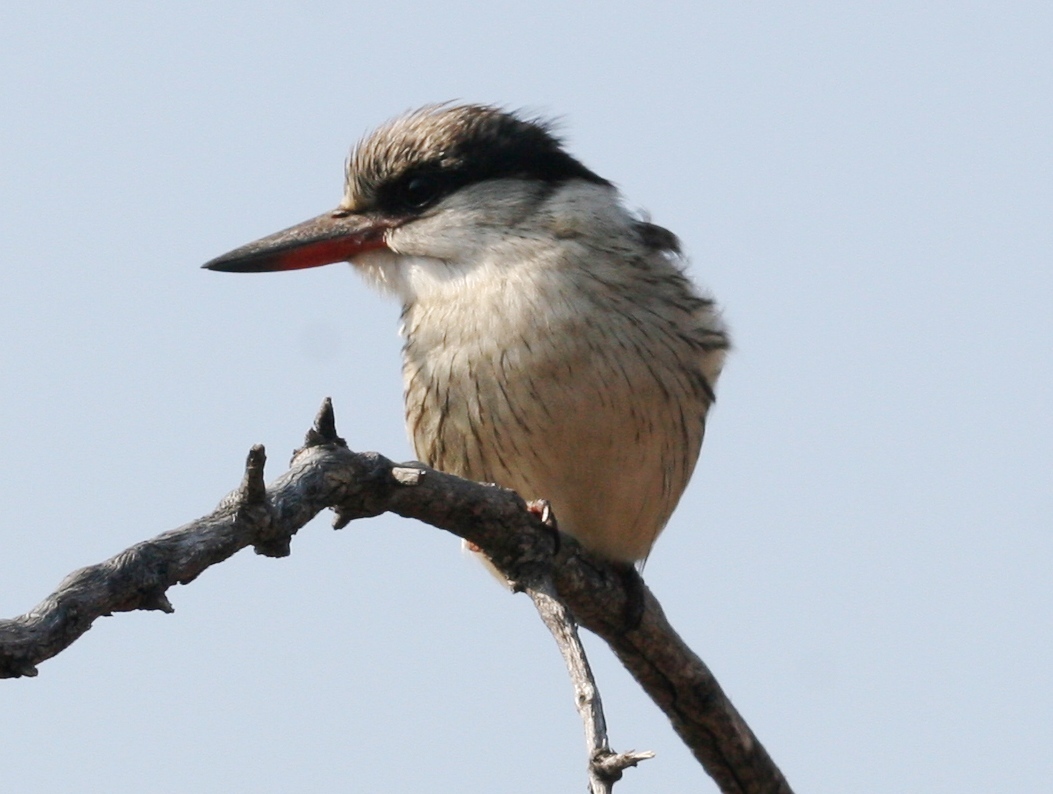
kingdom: Animalia
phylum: Chordata
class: Aves
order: Coraciiformes
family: Alcedinidae
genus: Halcyon
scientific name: Halcyon chelicuti
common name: Striped kingfisher
